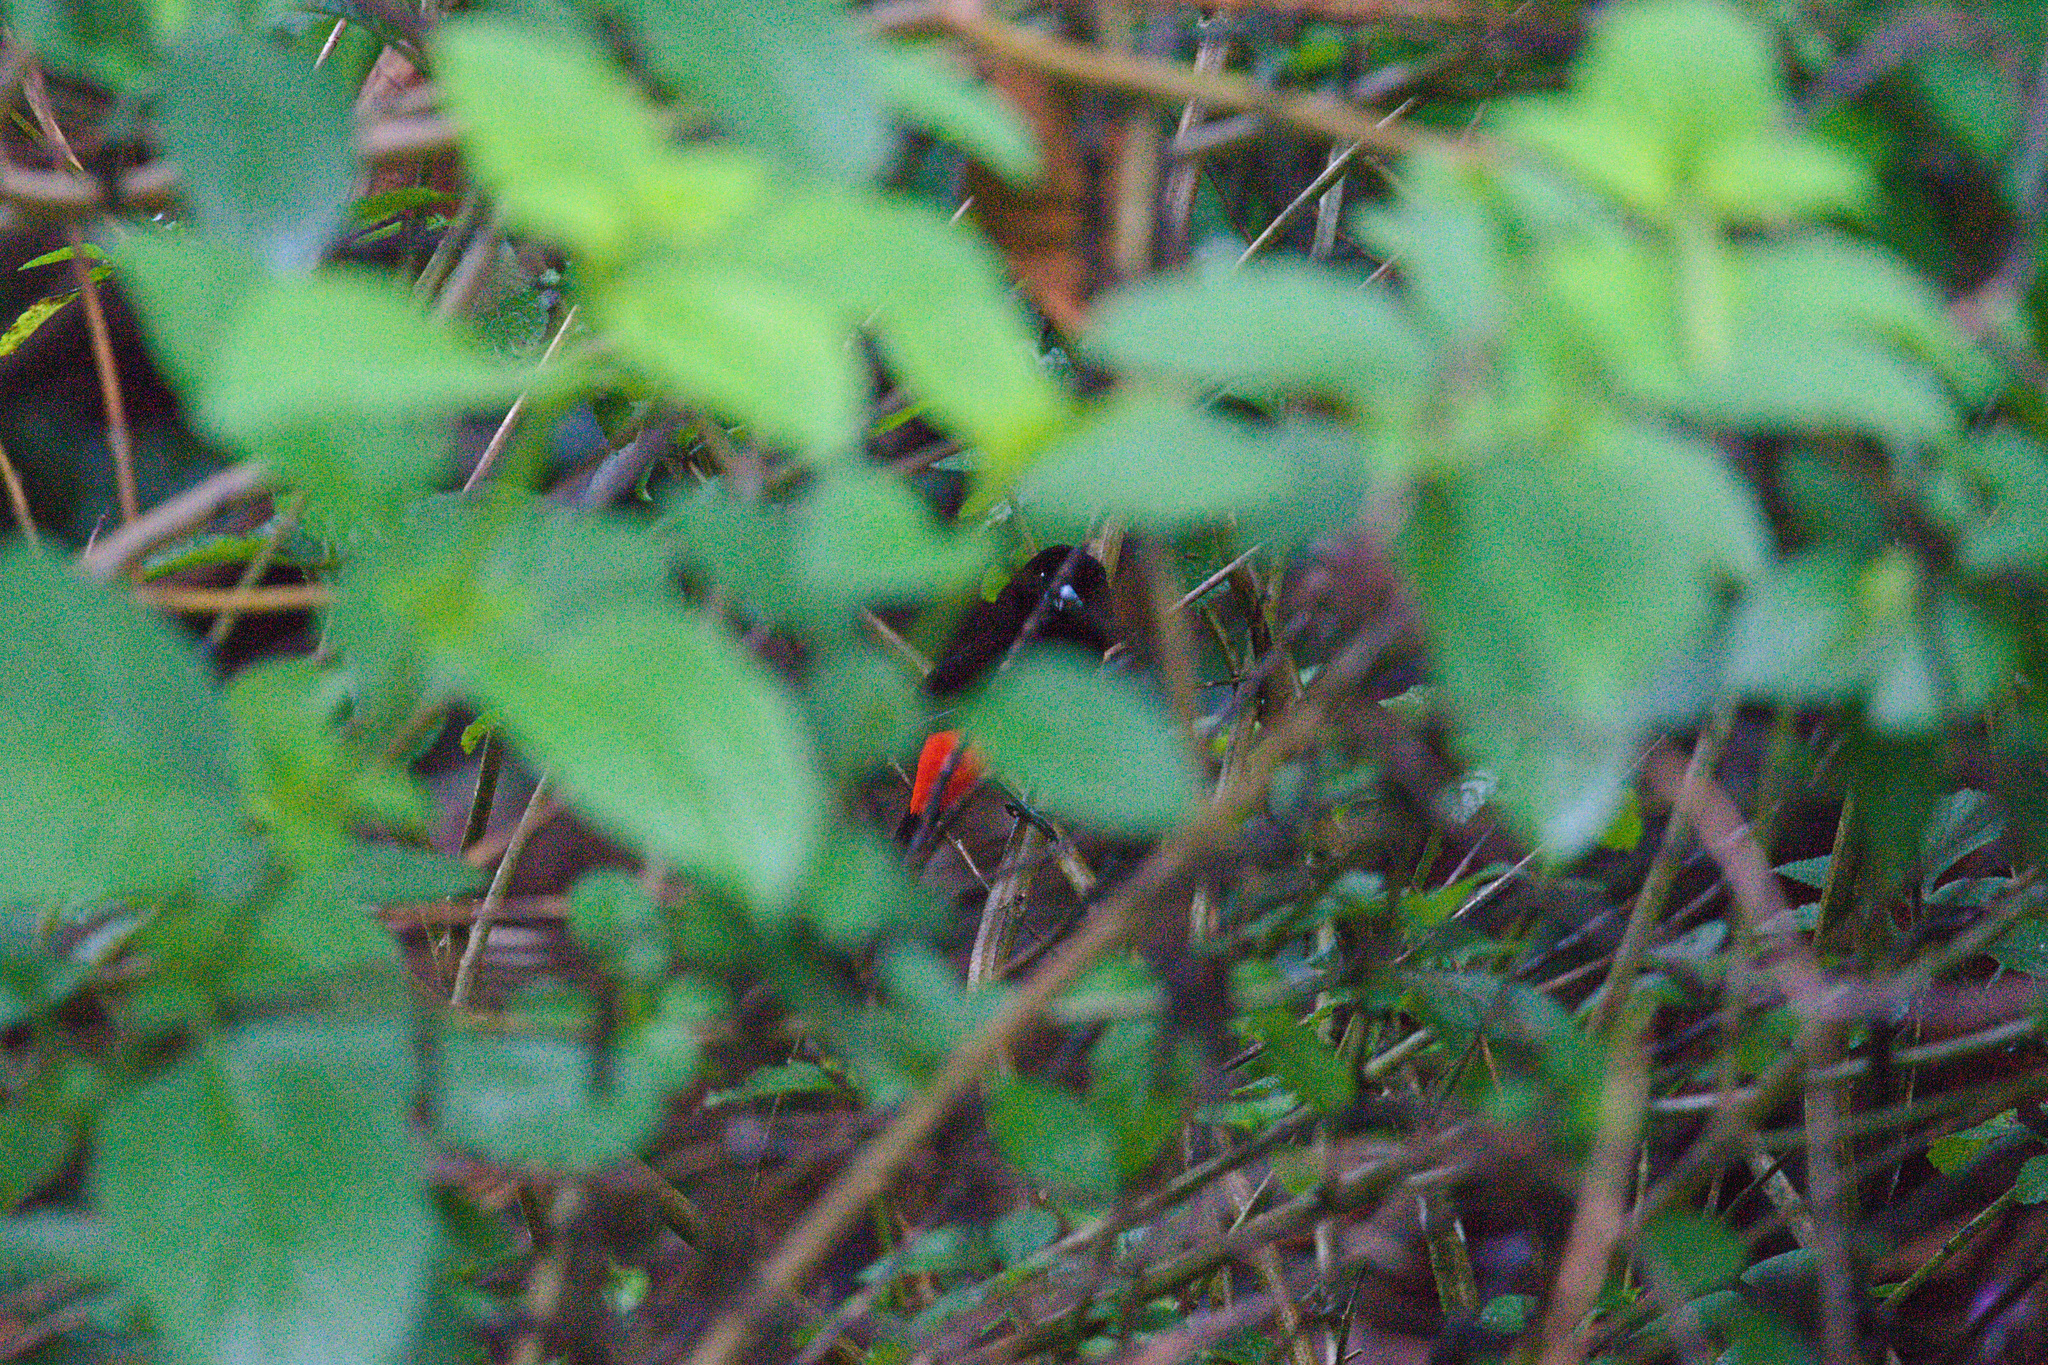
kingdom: Animalia
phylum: Chordata
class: Aves
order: Passeriformes
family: Thraupidae
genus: Ramphocelus
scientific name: Ramphocelus passerinii
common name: Passerini's tanager
